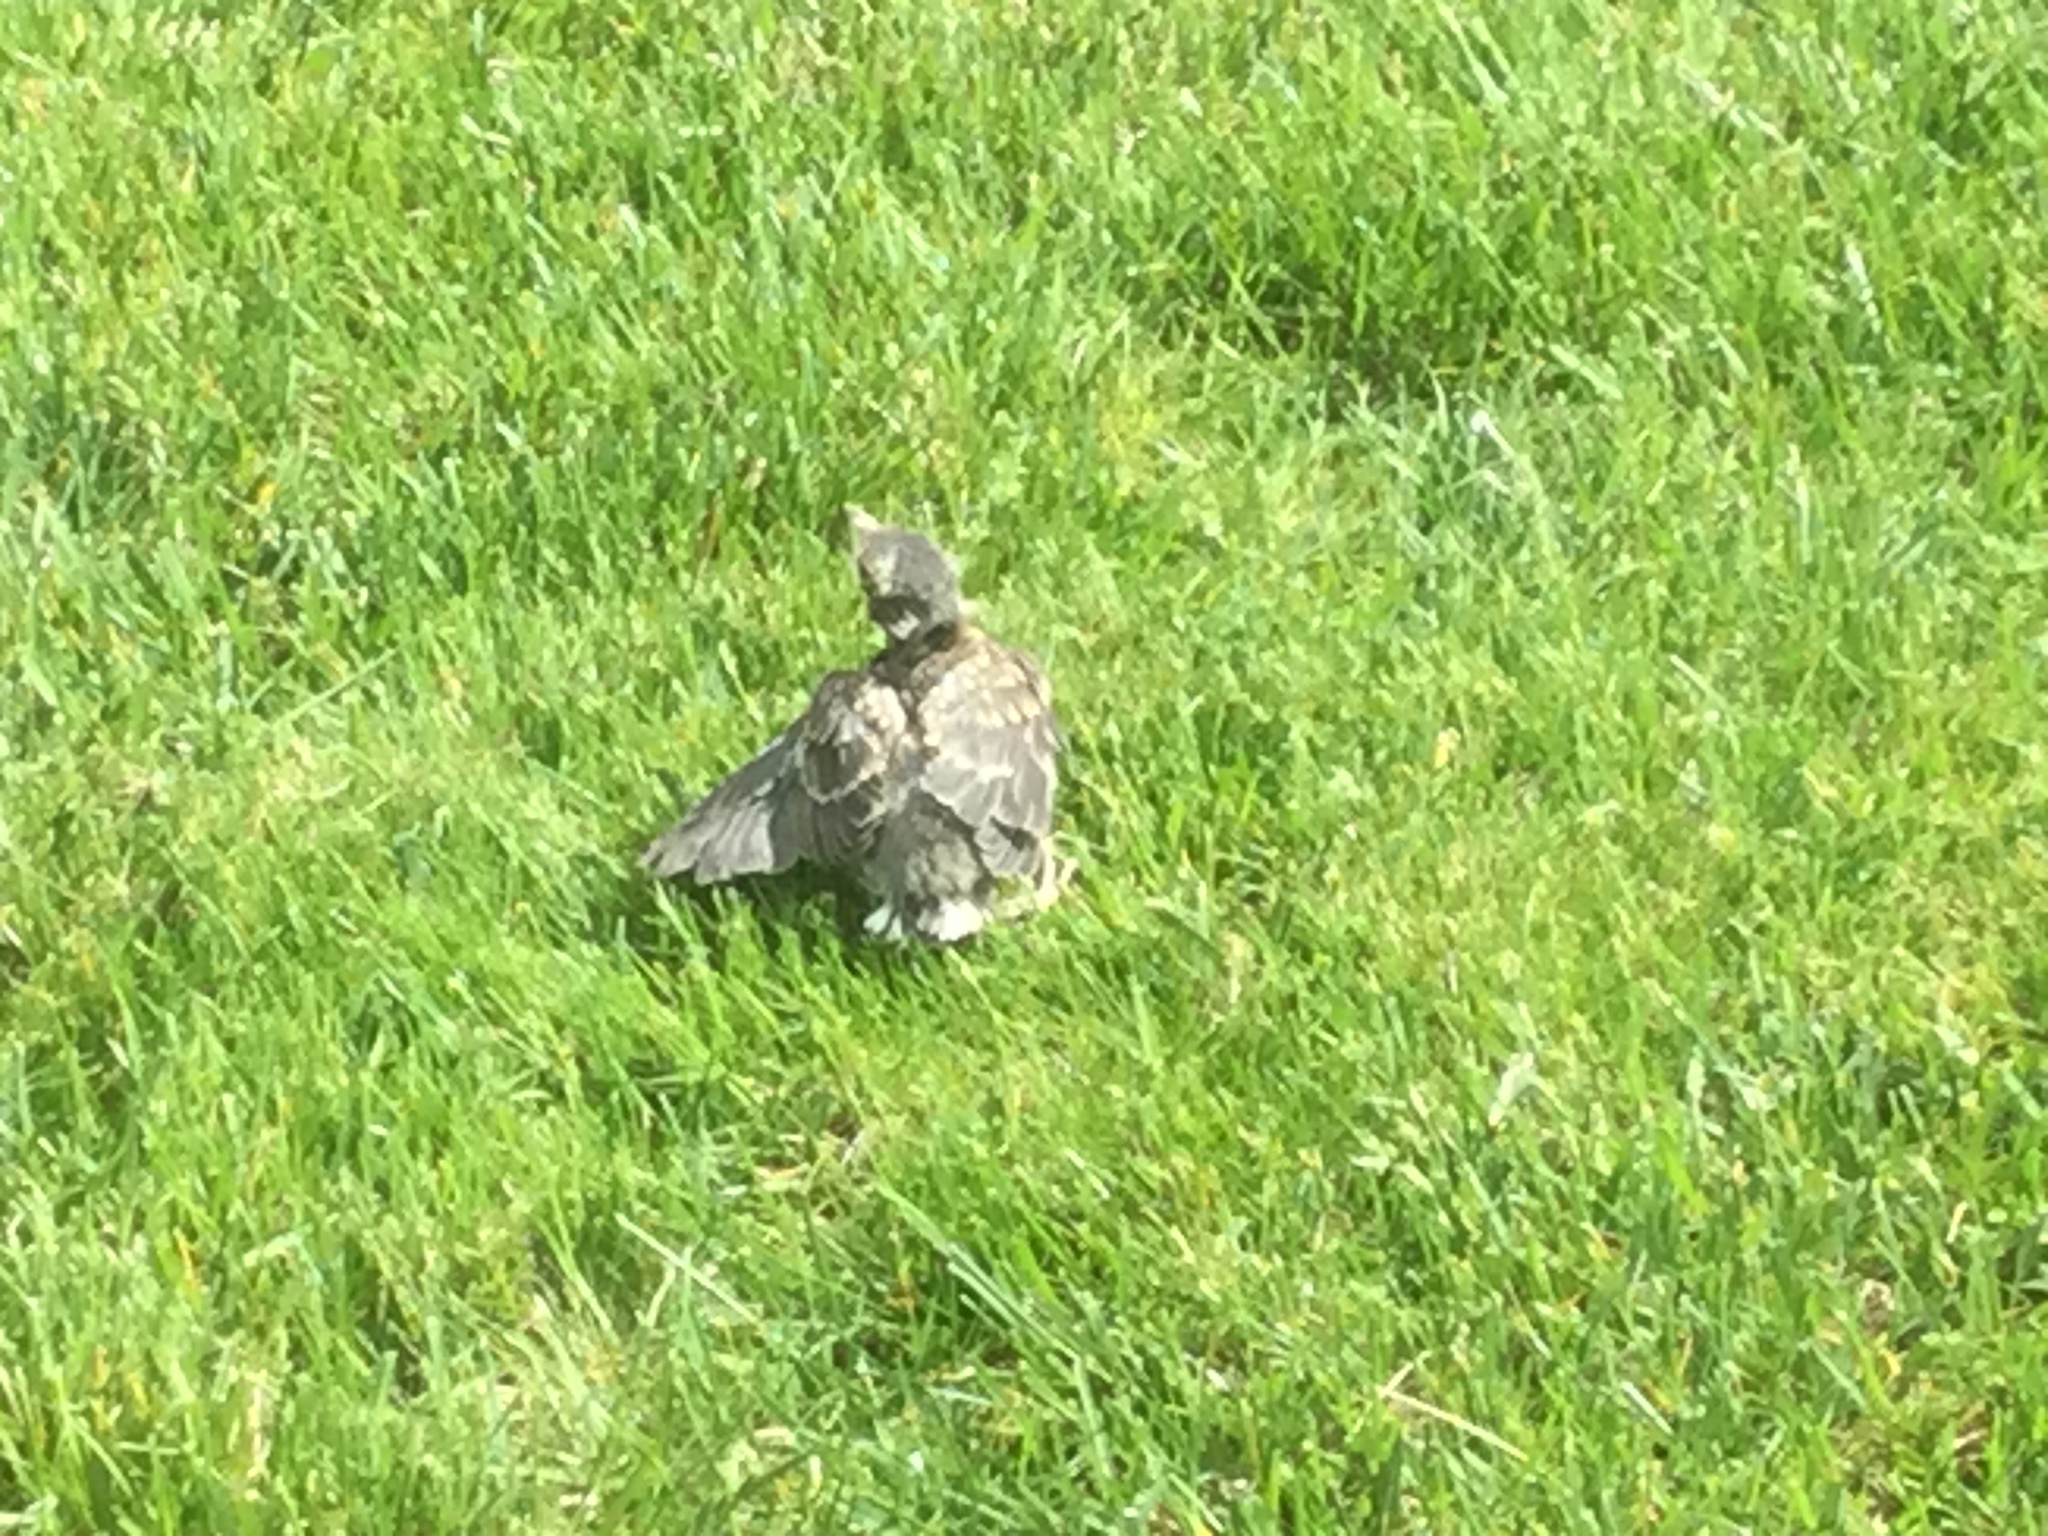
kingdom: Animalia
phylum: Chordata
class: Aves
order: Passeriformes
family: Turdidae
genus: Turdus
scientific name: Turdus migratorius
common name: American robin
